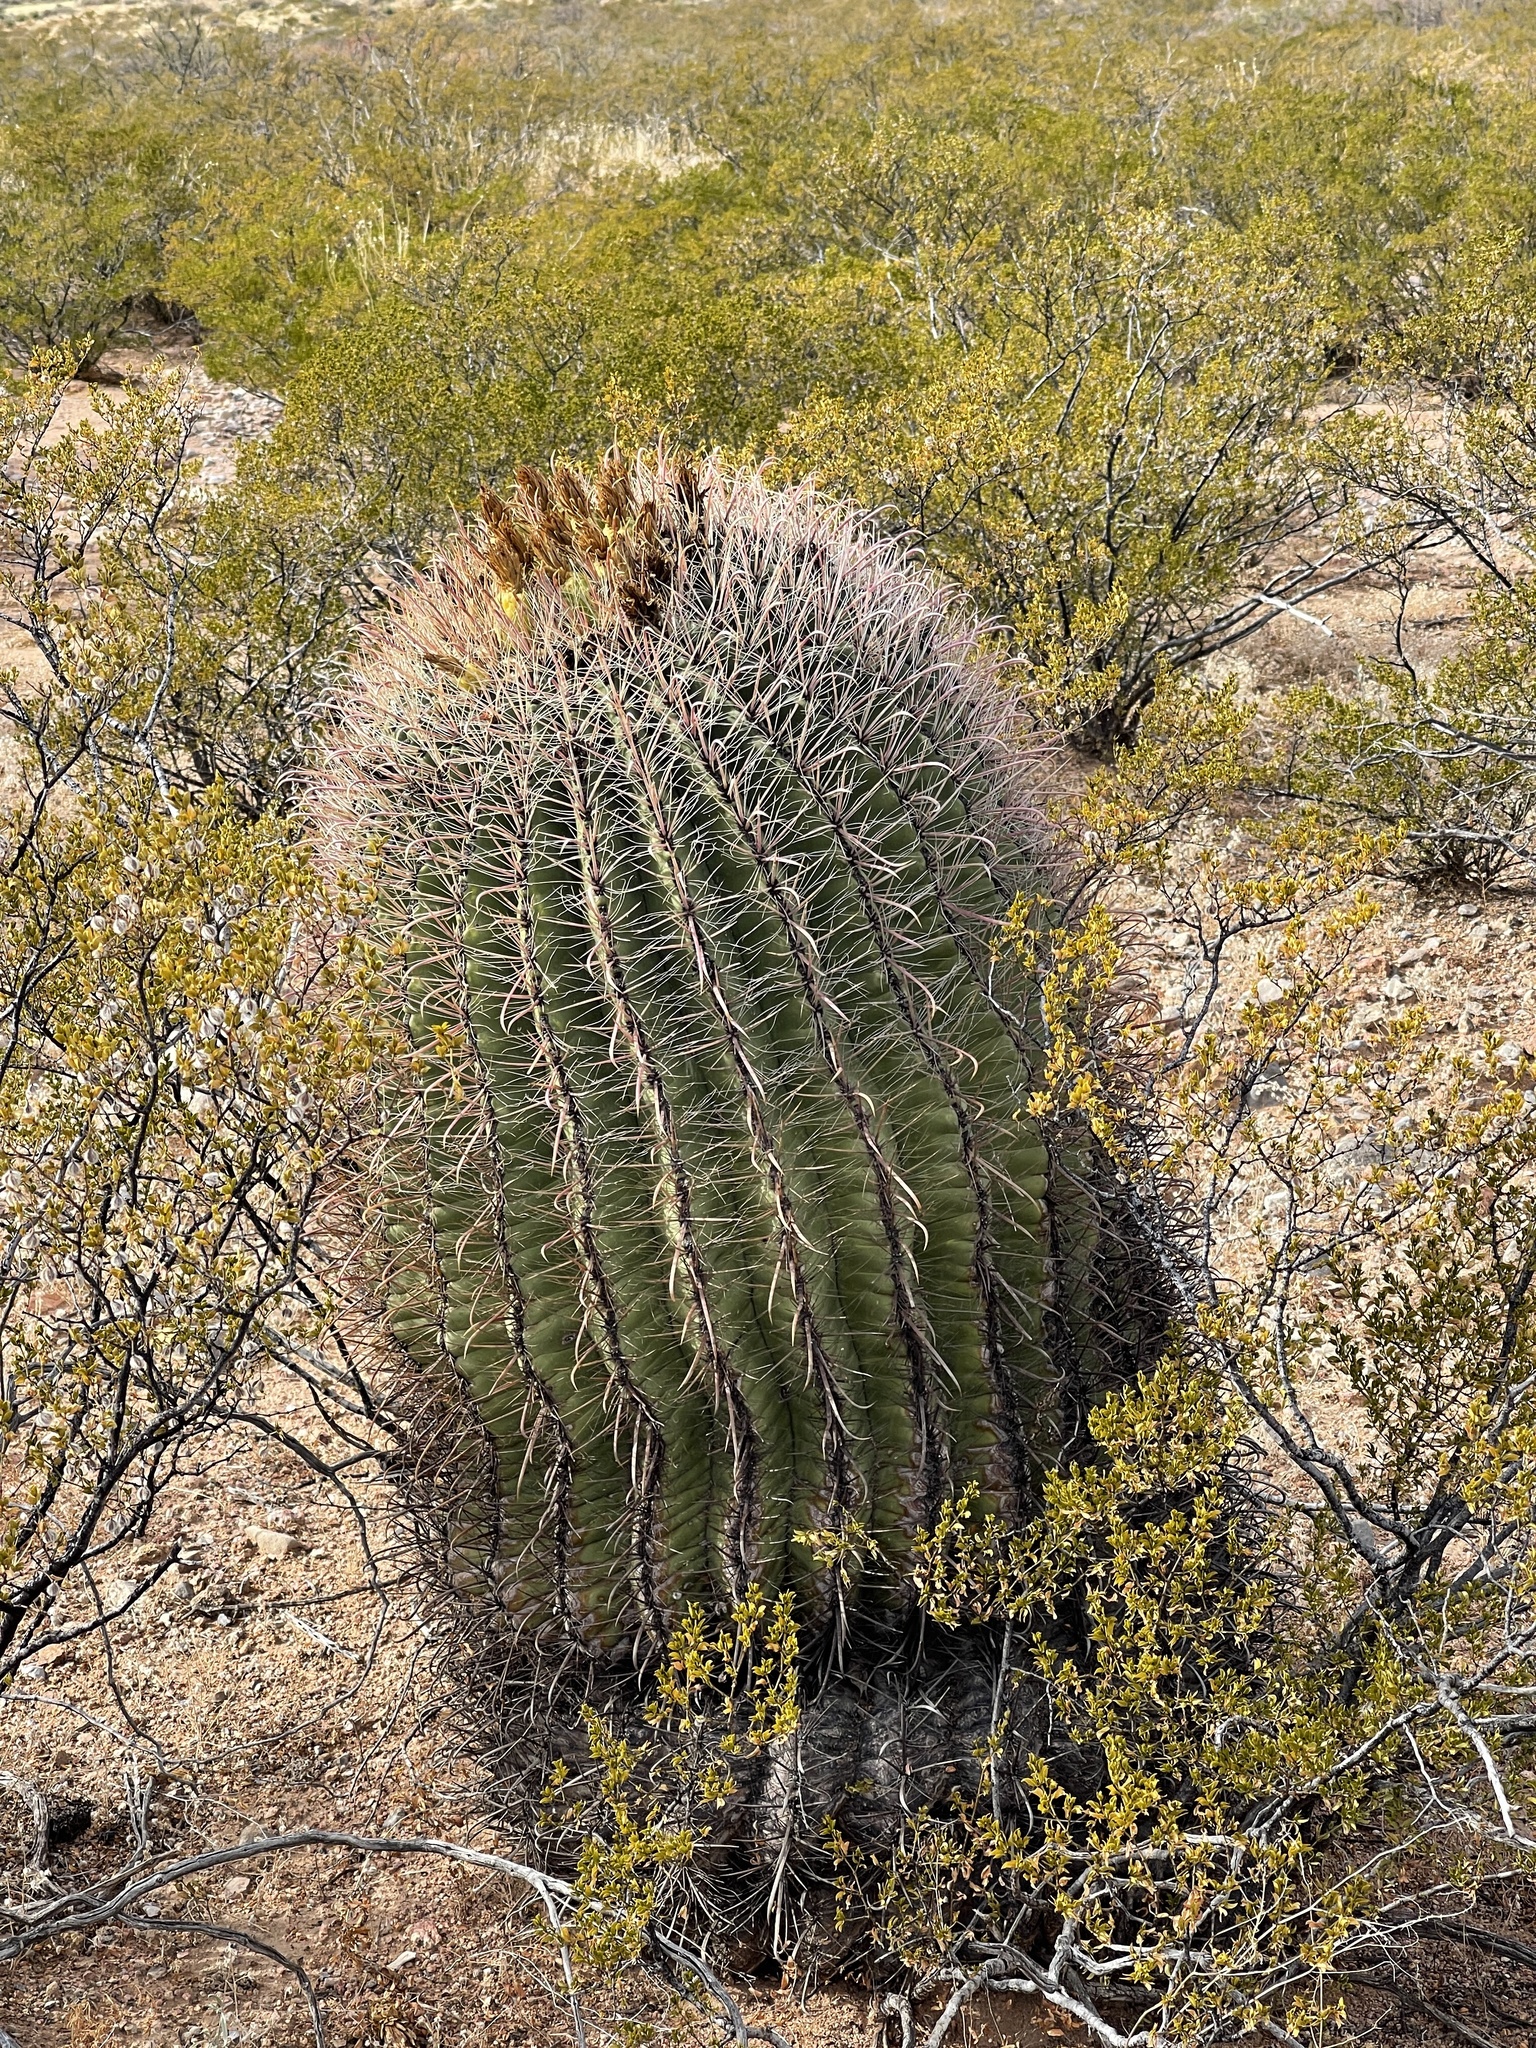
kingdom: Plantae
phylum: Tracheophyta
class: Magnoliopsida
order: Caryophyllales
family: Cactaceae
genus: Ferocactus
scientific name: Ferocactus wislizeni
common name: Candy barrel cactus
